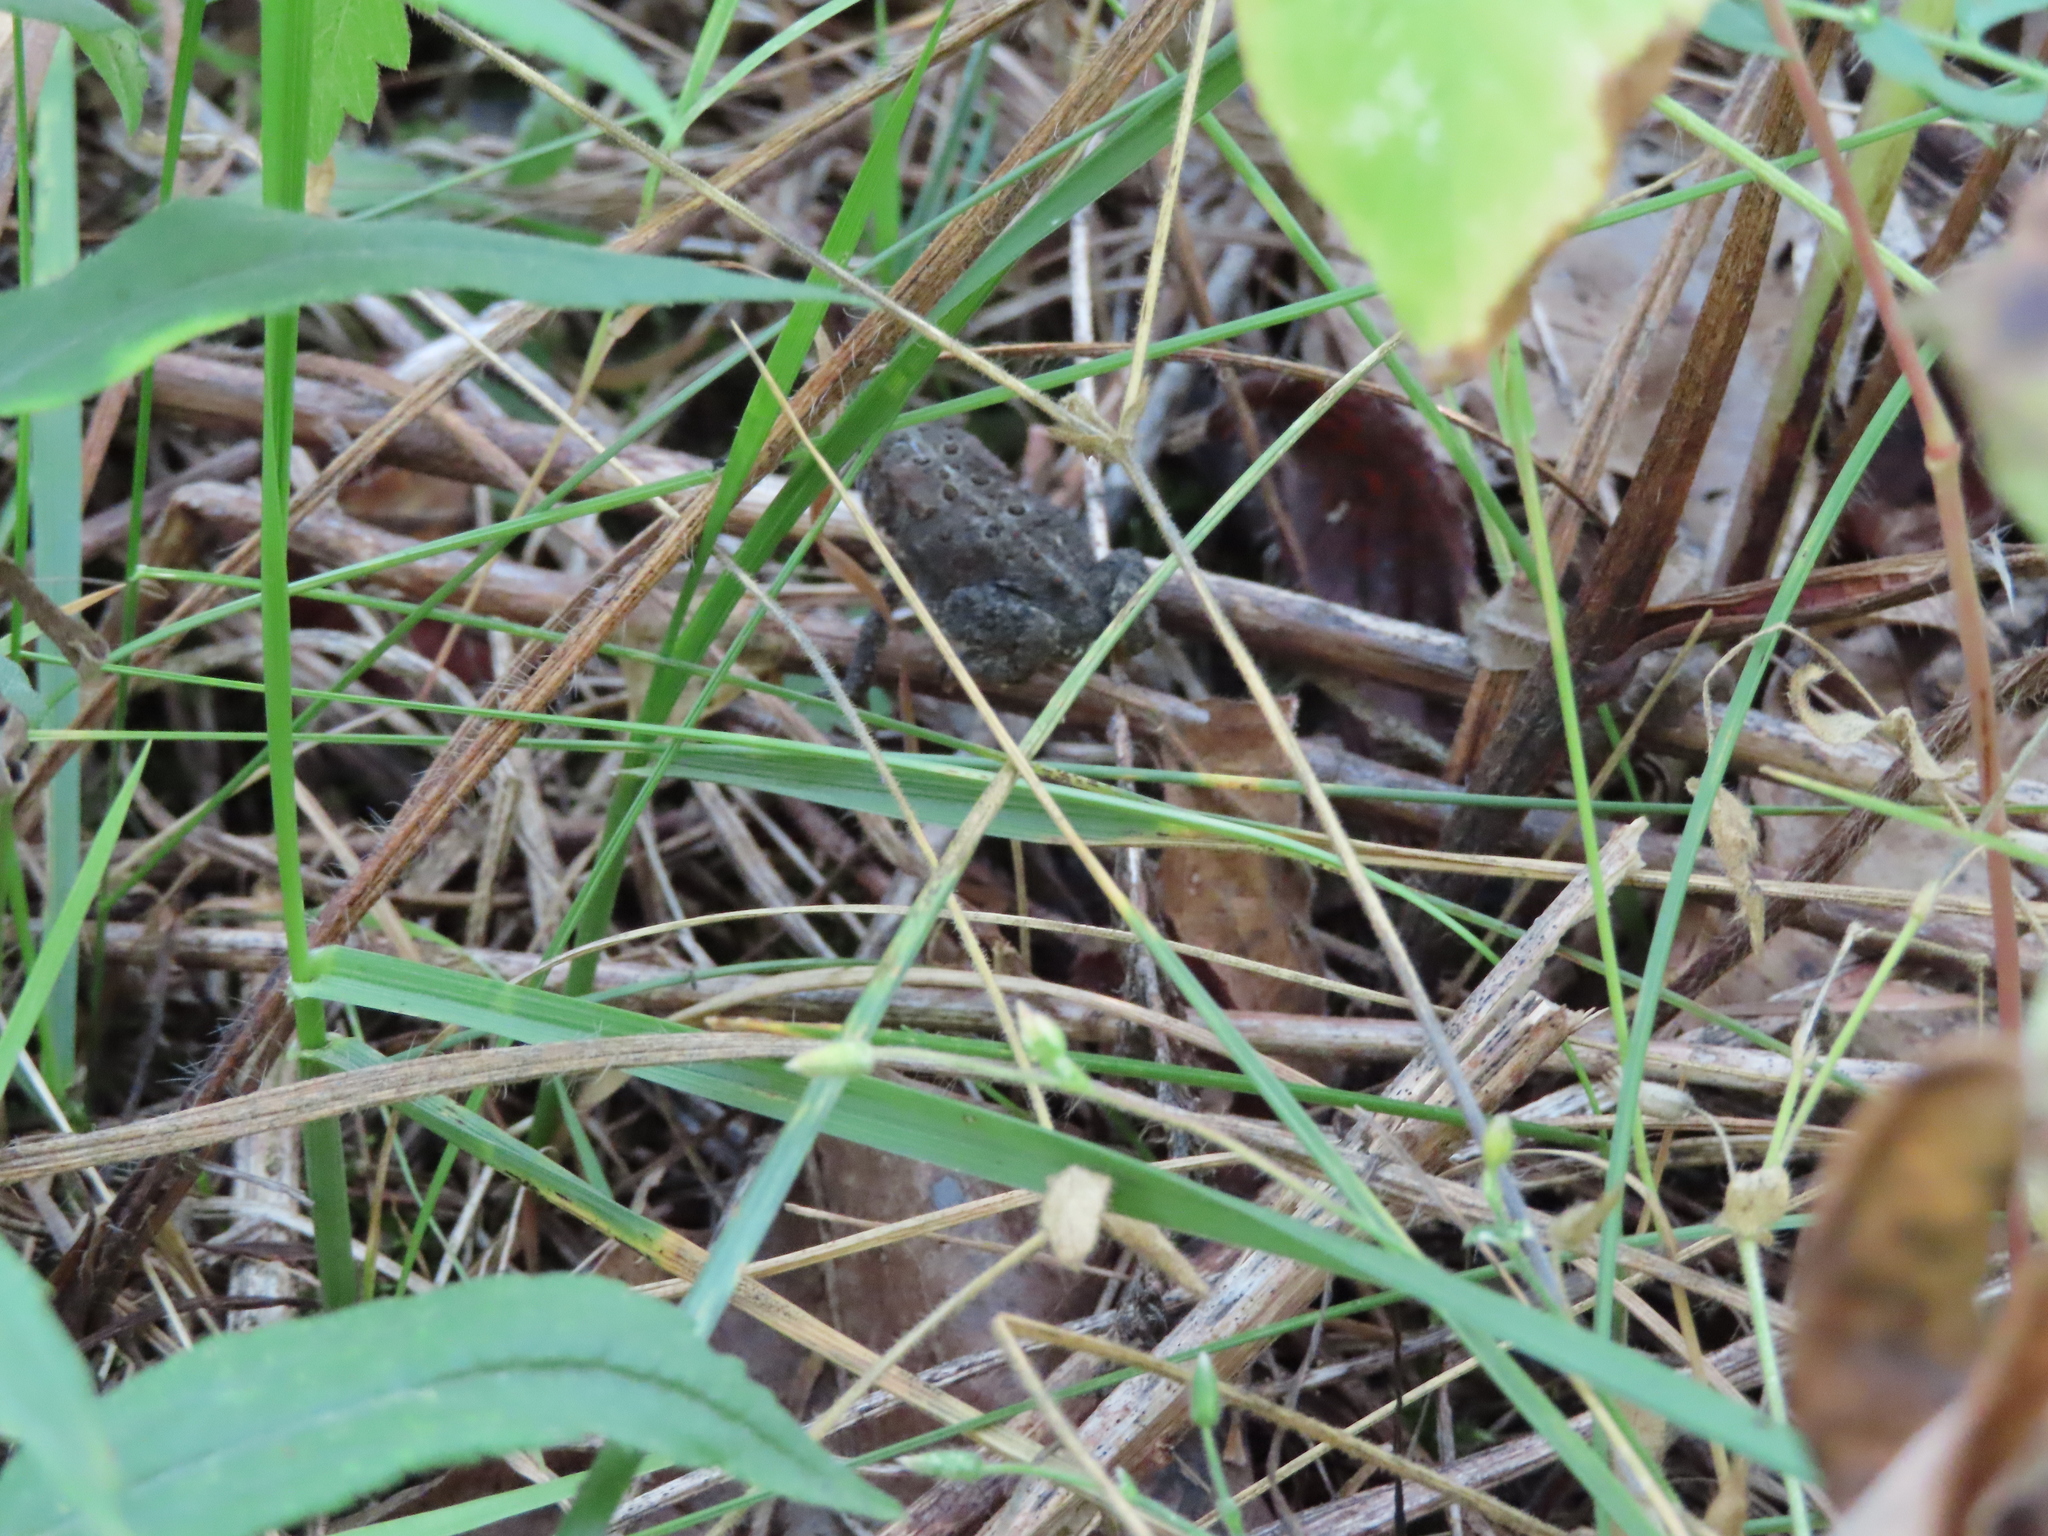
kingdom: Animalia
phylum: Chordata
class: Amphibia
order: Anura
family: Bufonidae
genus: Anaxyrus
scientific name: Anaxyrus americanus
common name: American toad
